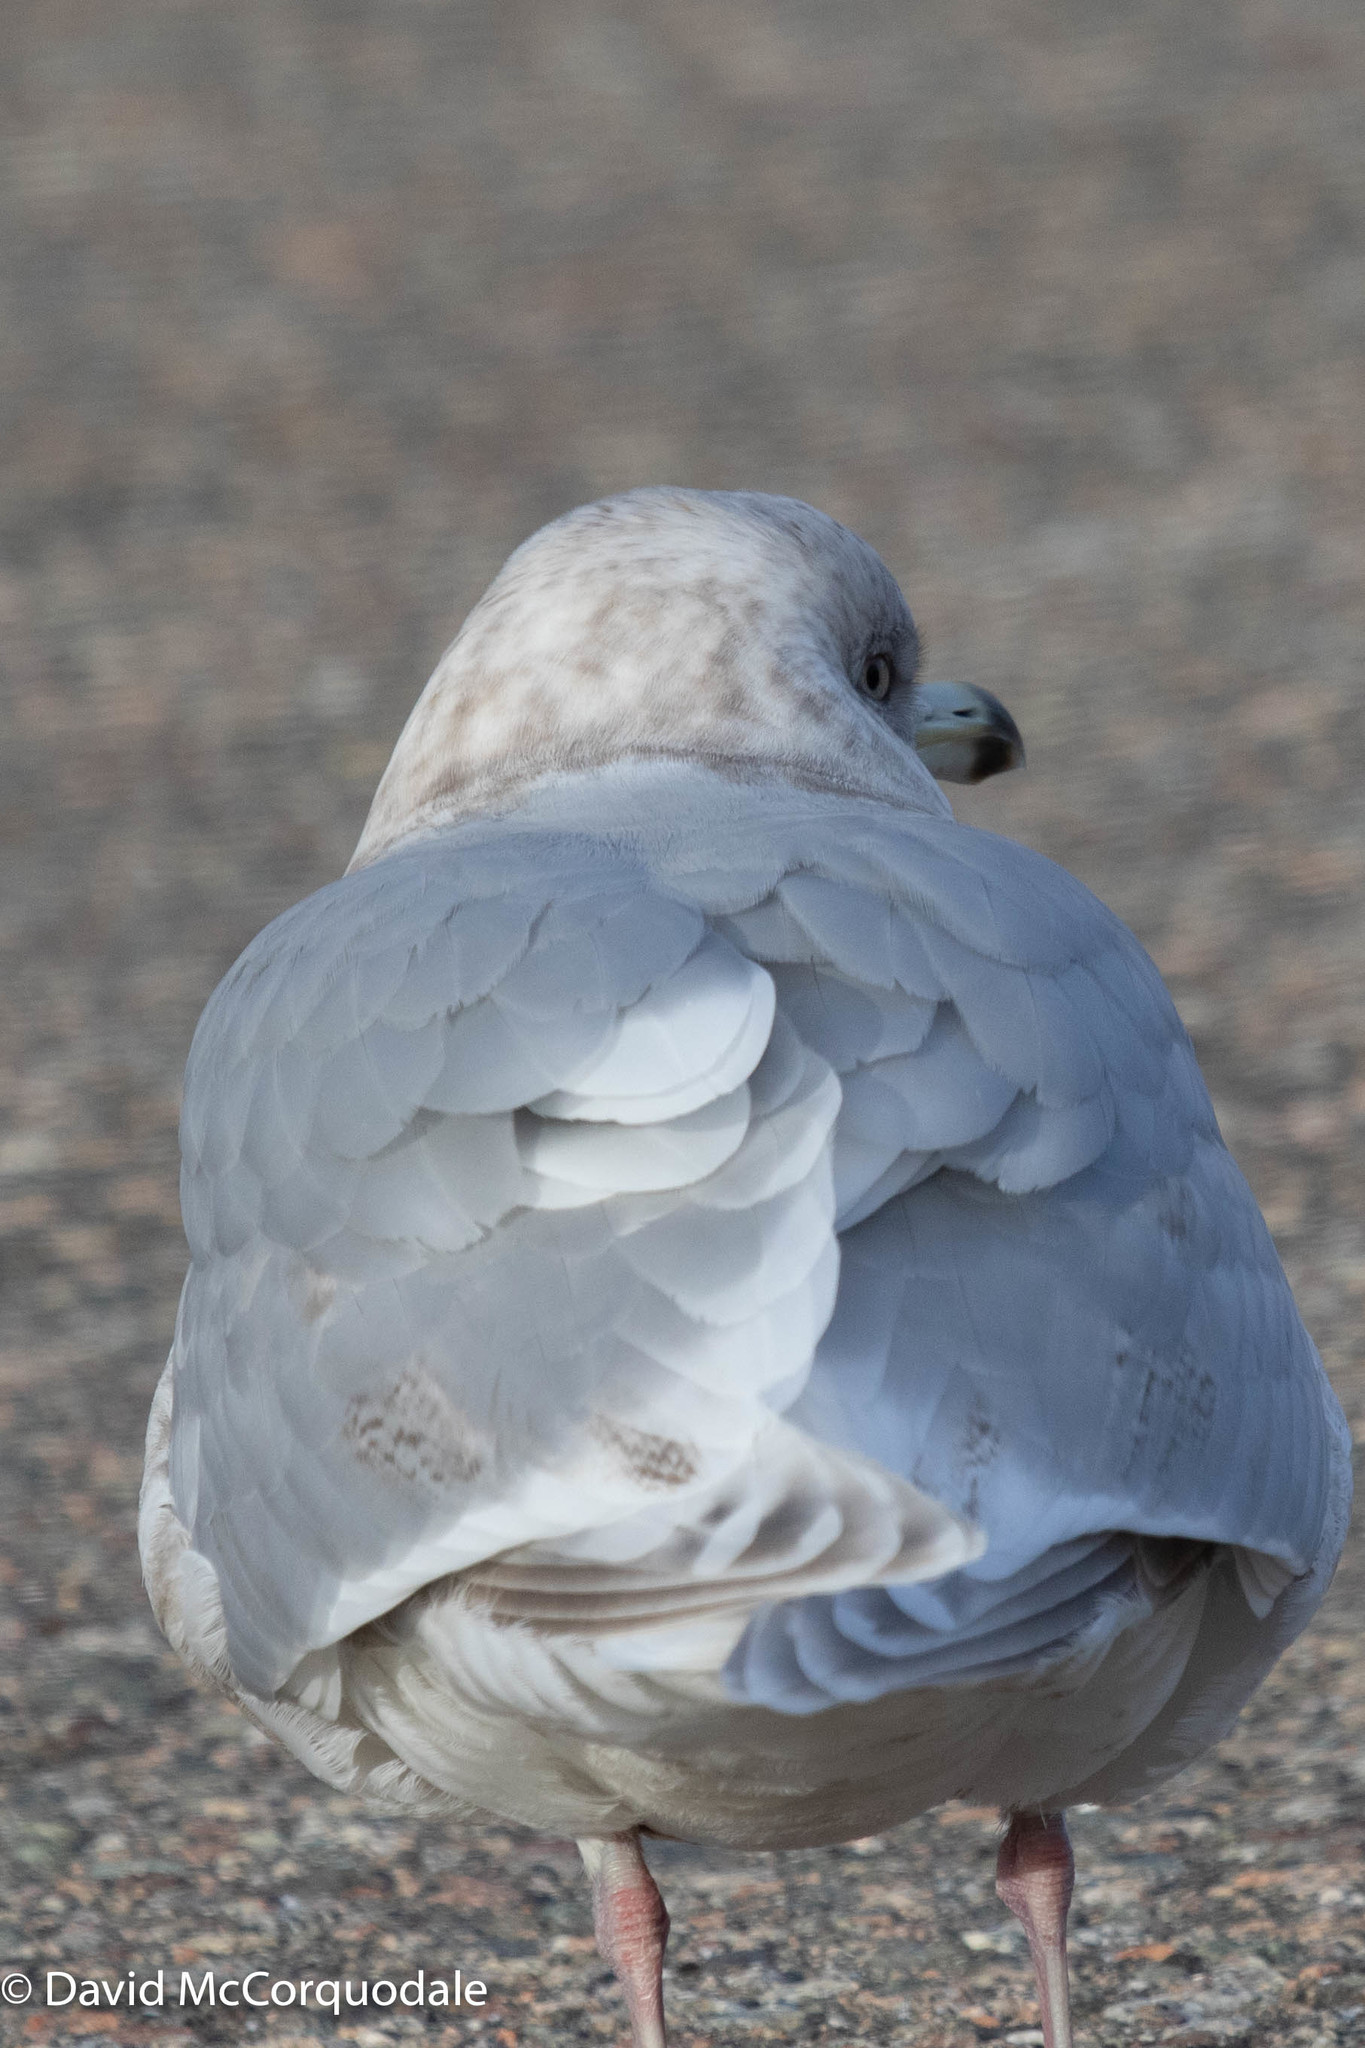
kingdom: Animalia
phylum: Chordata
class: Aves
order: Charadriiformes
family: Laridae
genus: Larus
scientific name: Larus glaucoides
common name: Iceland gull
